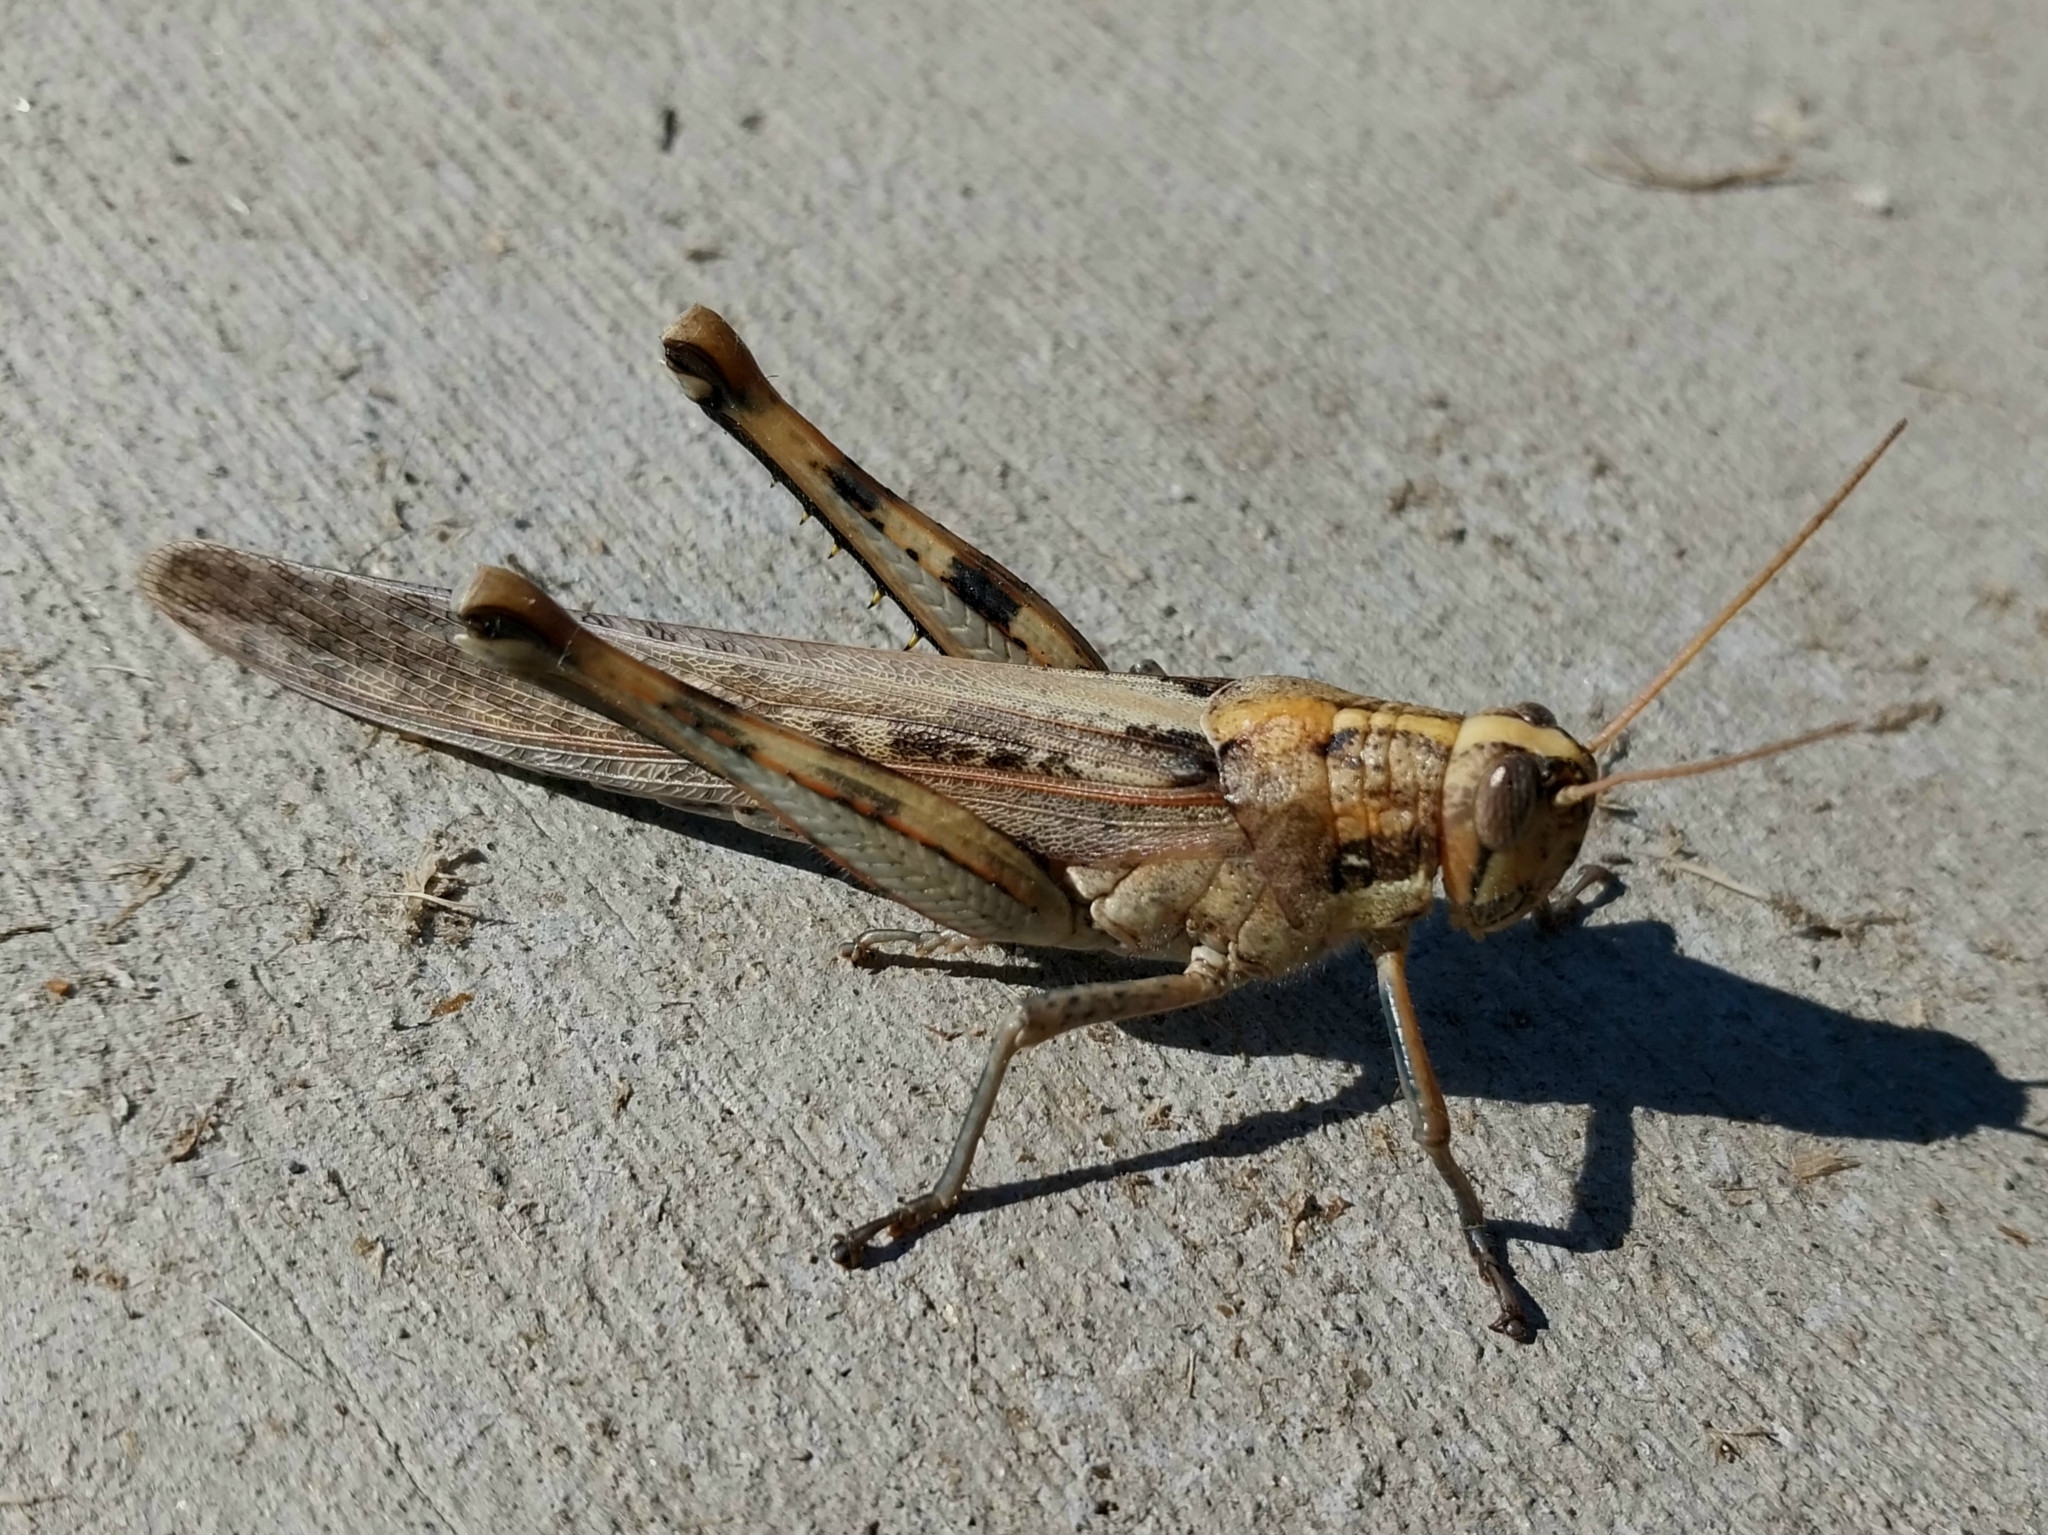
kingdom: Animalia
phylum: Arthropoda
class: Insecta
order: Orthoptera
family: Acrididae
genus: Schistocerca
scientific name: Schistocerca nitens
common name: Vagrant grasshopper
